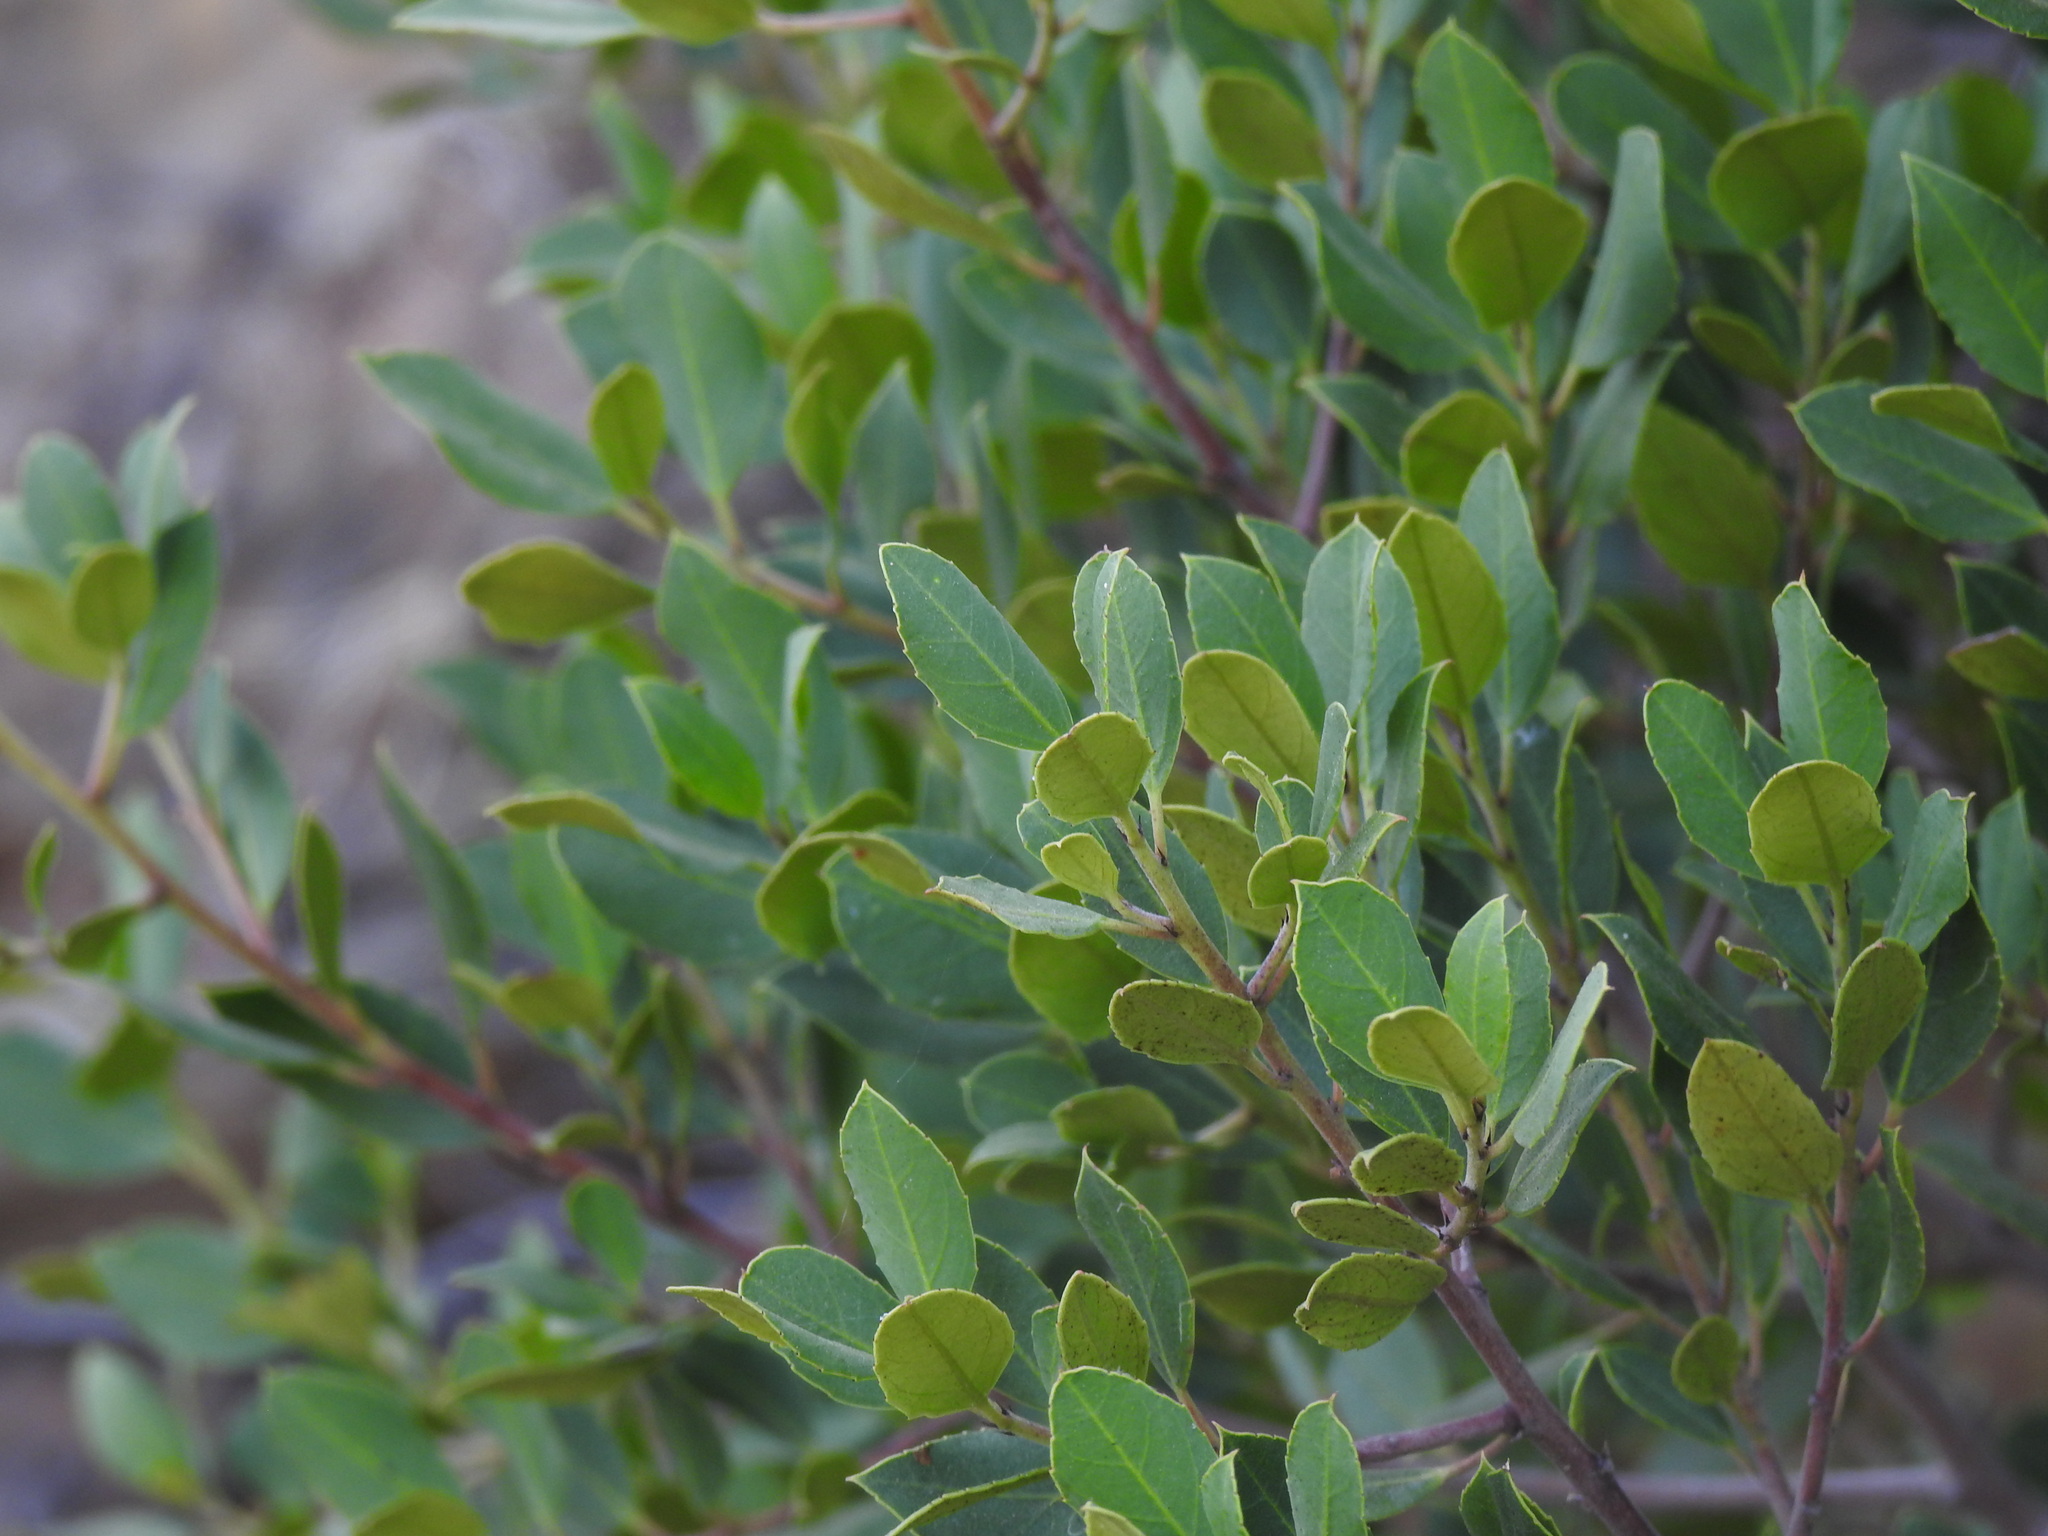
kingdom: Plantae
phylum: Tracheophyta
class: Magnoliopsida
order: Rosales
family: Rhamnaceae
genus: Rhamnus
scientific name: Rhamnus alaternus
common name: Mediterranean buckthorn
